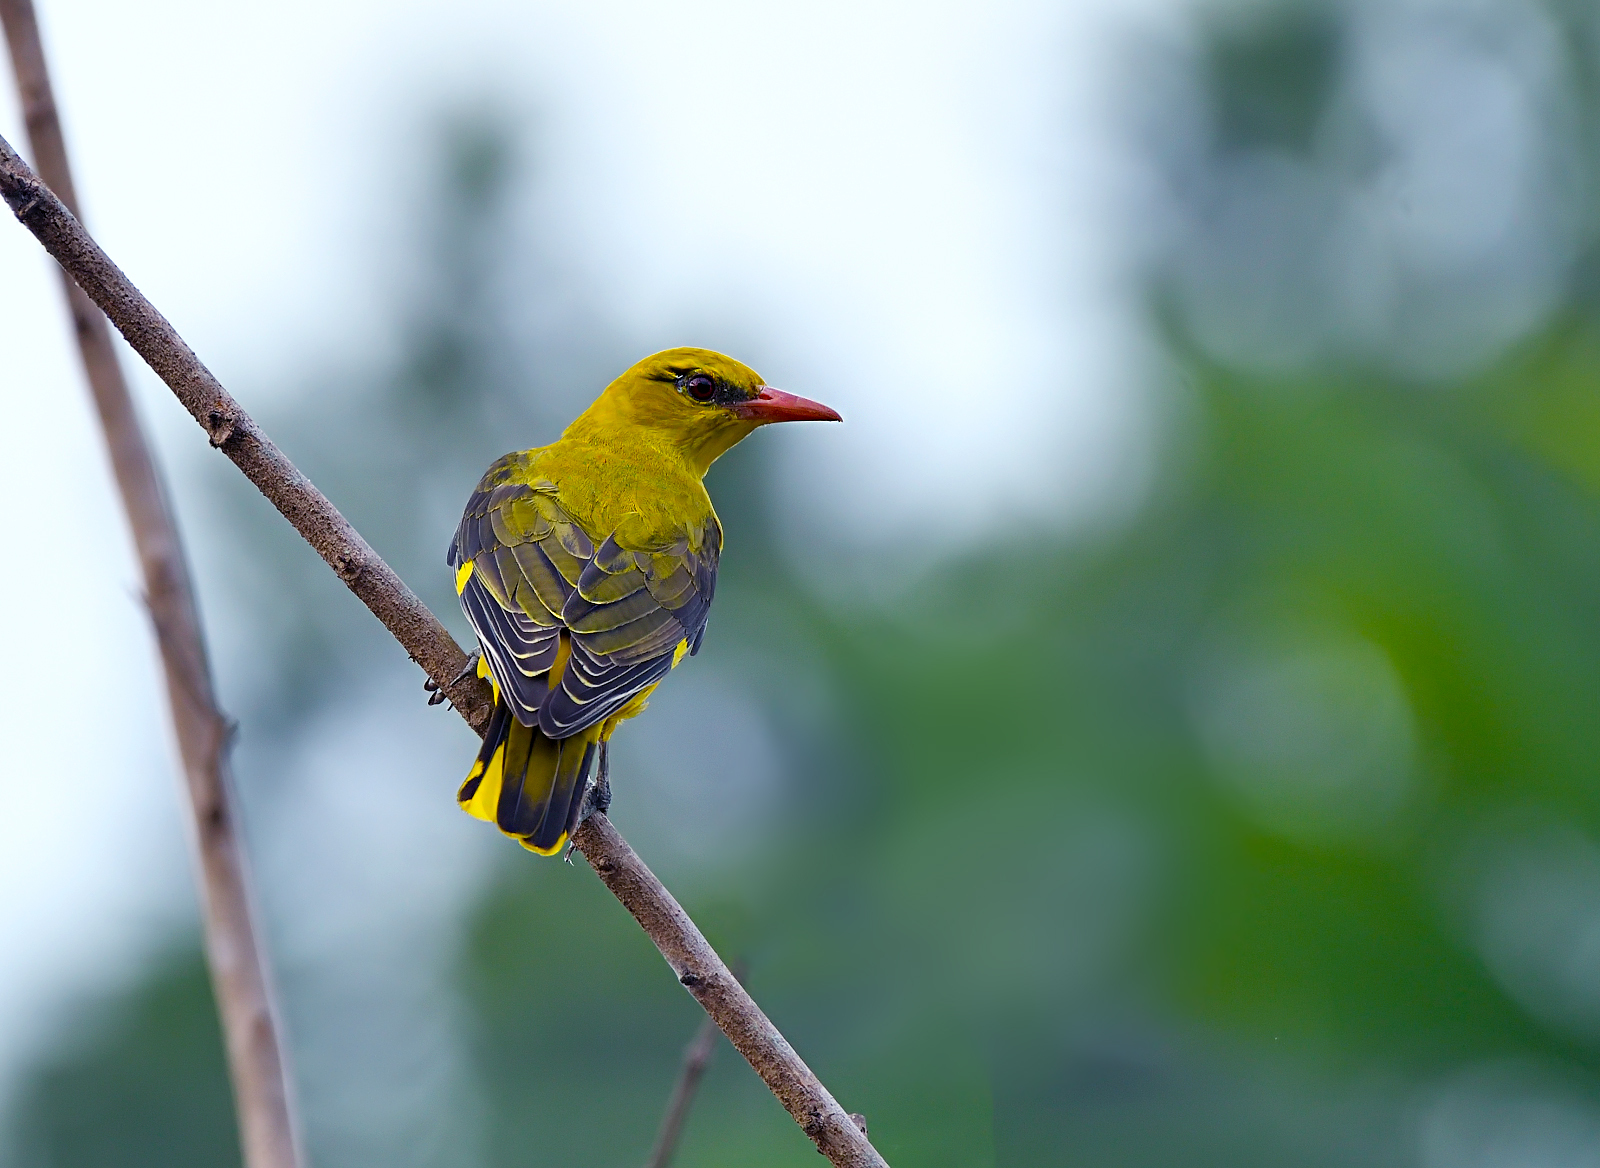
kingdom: Animalia
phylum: Chordata
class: Aves
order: Passeriformes
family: Oriolidae
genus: Oriolus
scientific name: Oriolus kundoo
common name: Indian golden oriole
